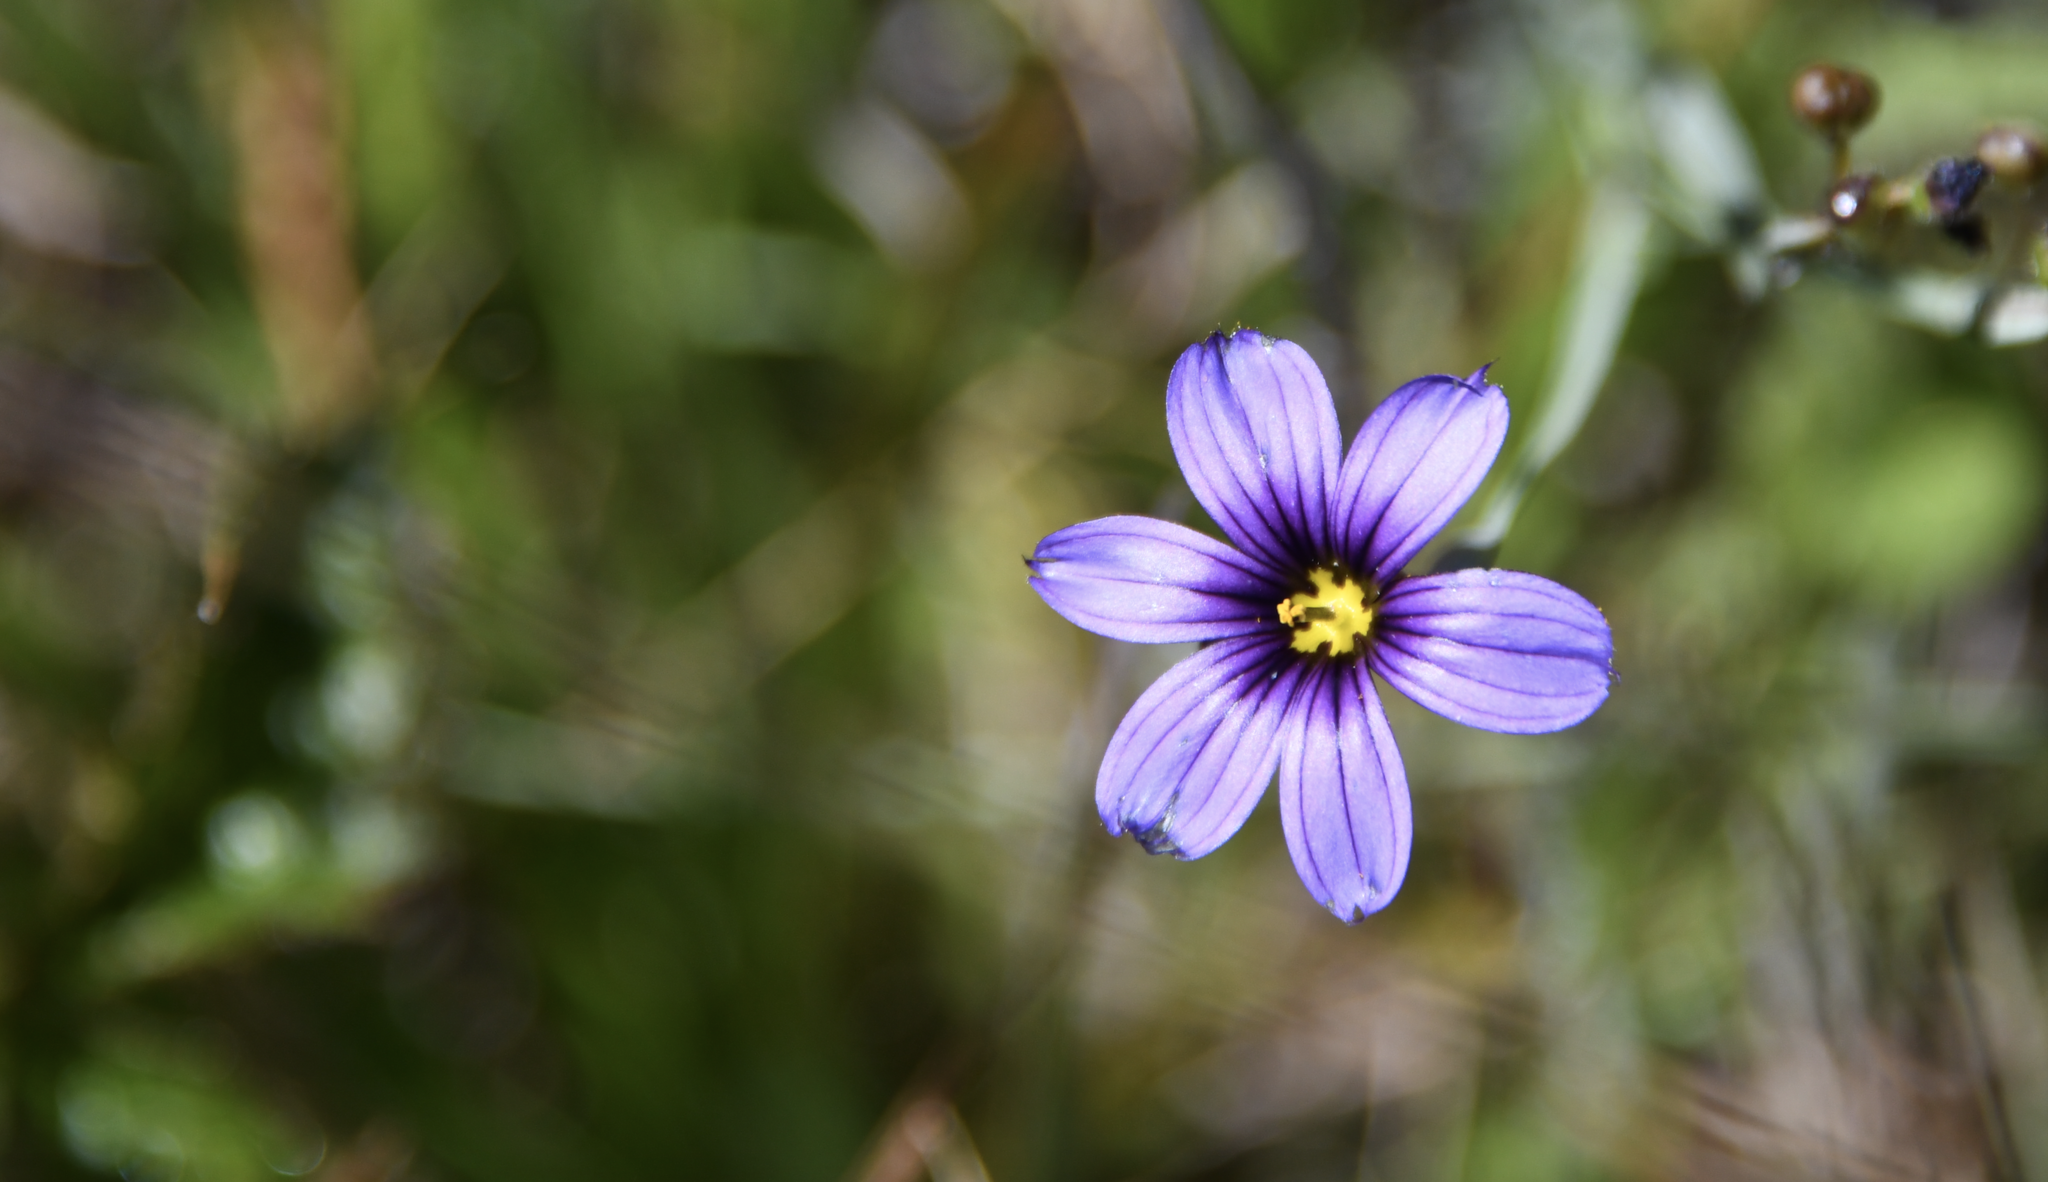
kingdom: Plantae
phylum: Tracheophyta
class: Liliopsida
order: Asparagales
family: Iridaceae
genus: Sisyrinchium
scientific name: Sisyrinchium bellum
